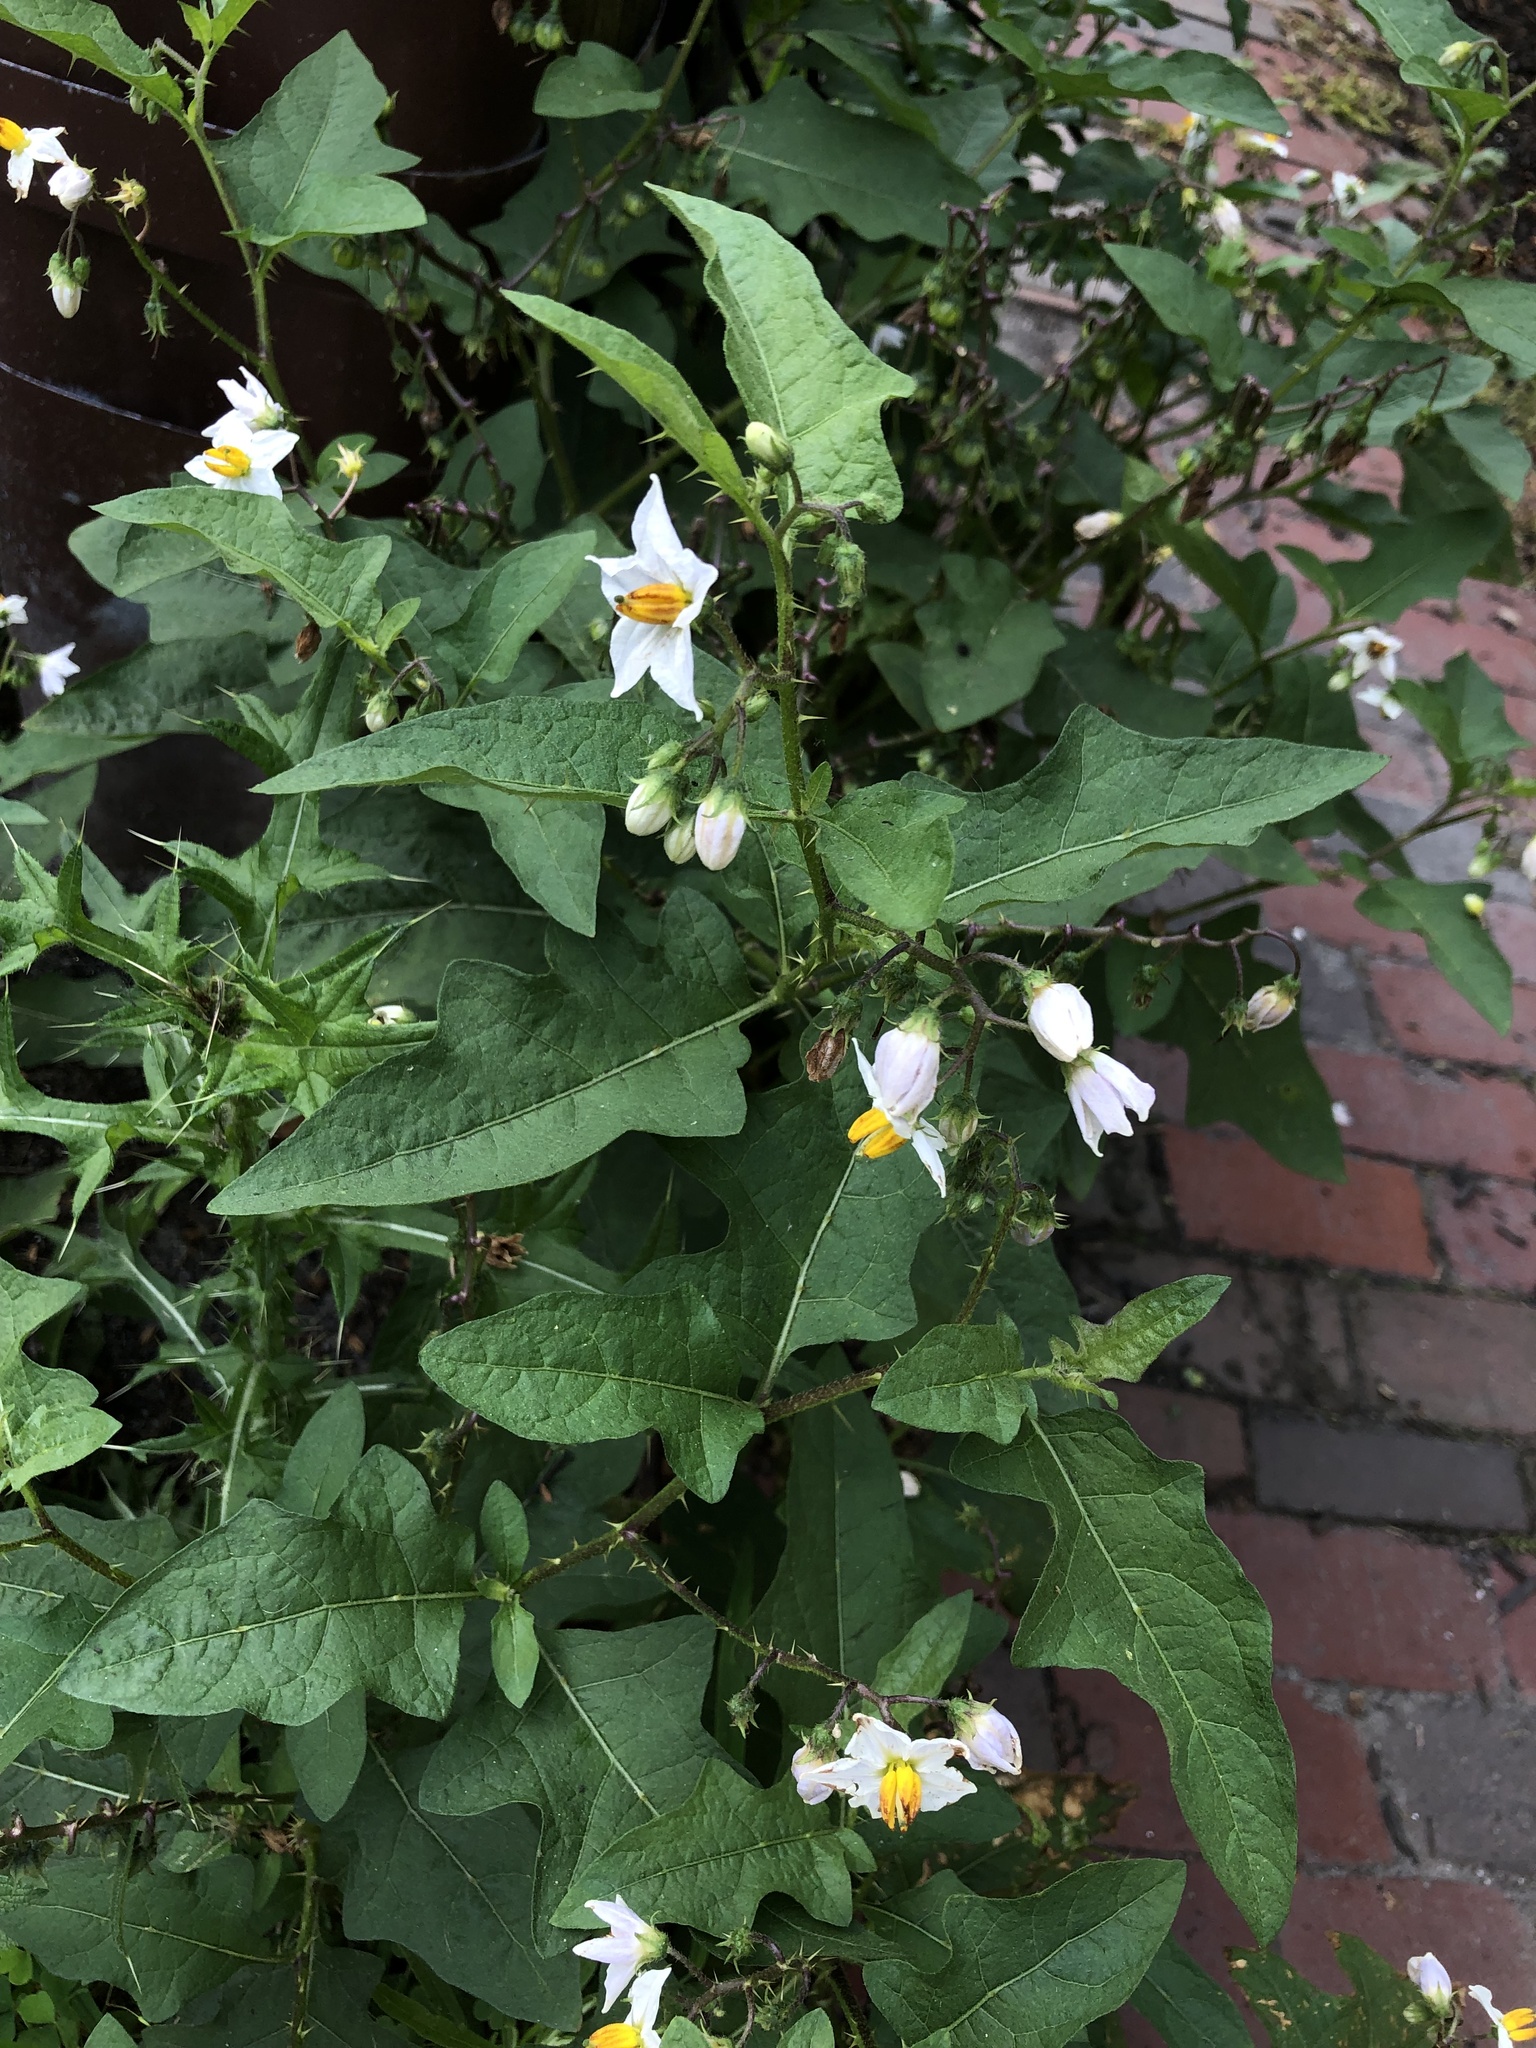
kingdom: Plantae
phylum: Tracheophyta
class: Magnoliopsida
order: Solanales
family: Solanaceae
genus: Solanum
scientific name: Solanum carolinense
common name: Horse-nettle
